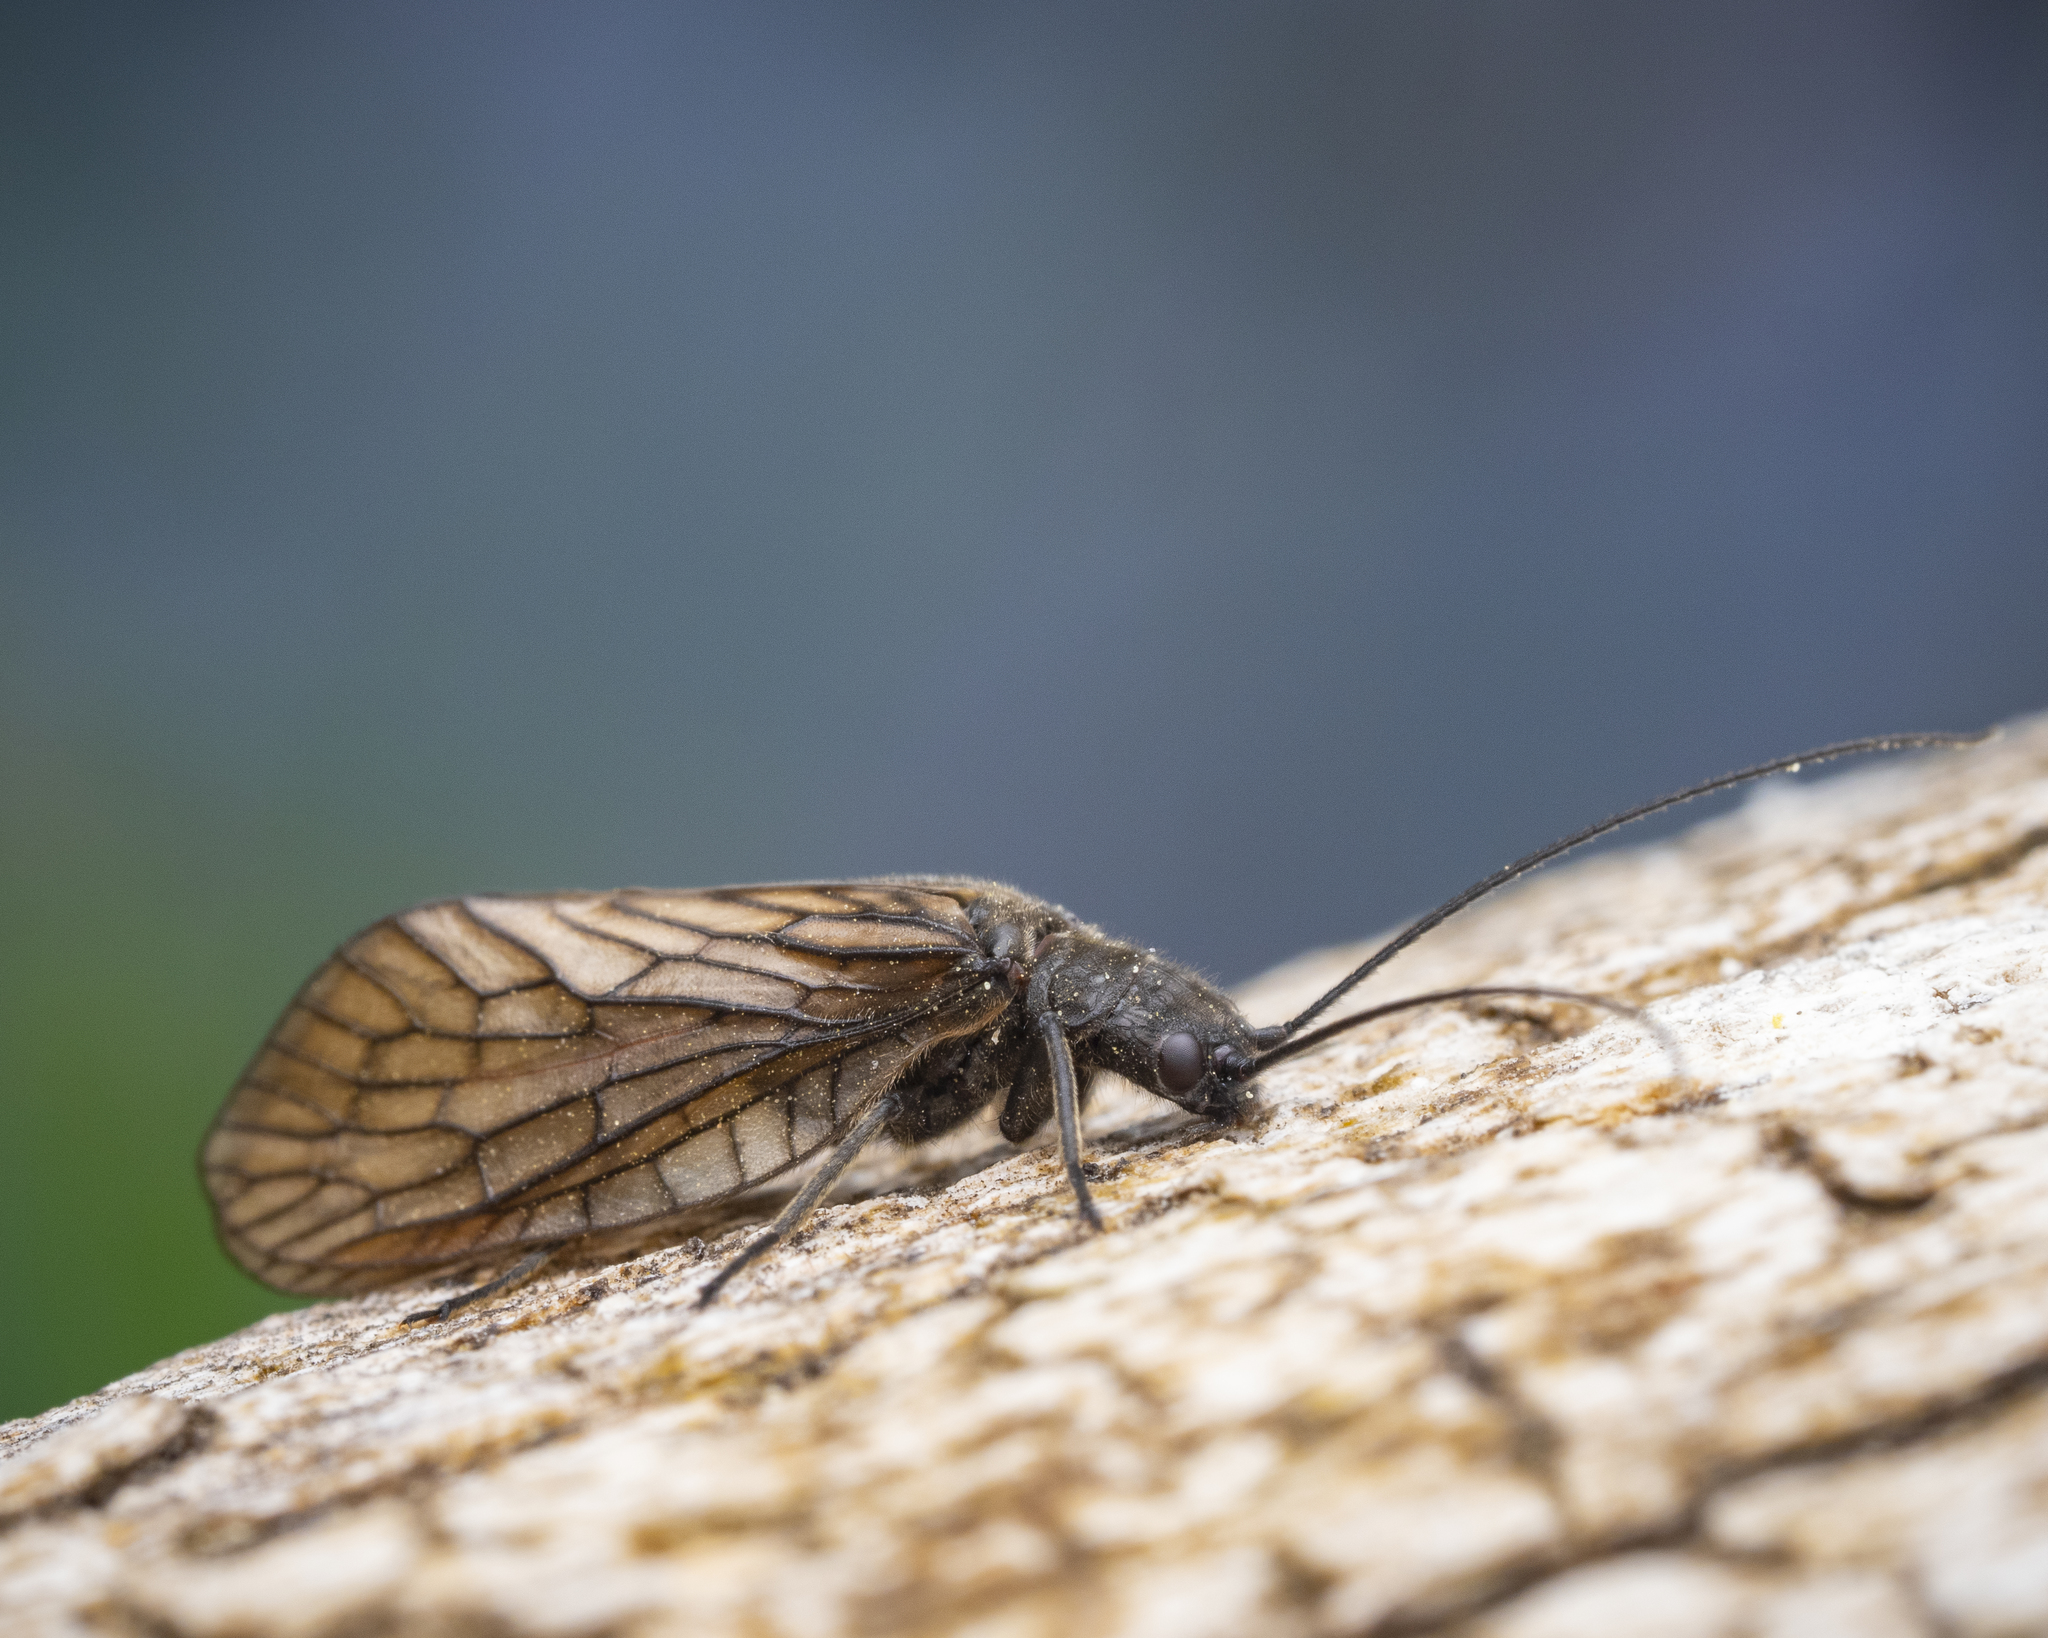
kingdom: Animalia
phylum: Arthropoda
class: Insecta
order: Megaloptera
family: Sialidae
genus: Sialis
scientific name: Sialis
